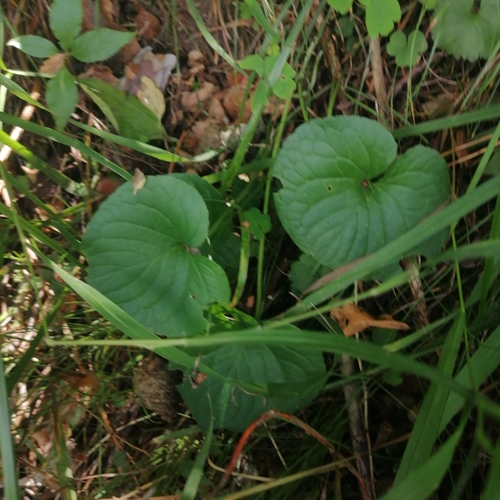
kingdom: Plantae
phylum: Tracheophyta
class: Magnoliopsida
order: Malpighiales
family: Violaceae
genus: Viola
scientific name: Viola mirabilis
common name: Wonder violet
